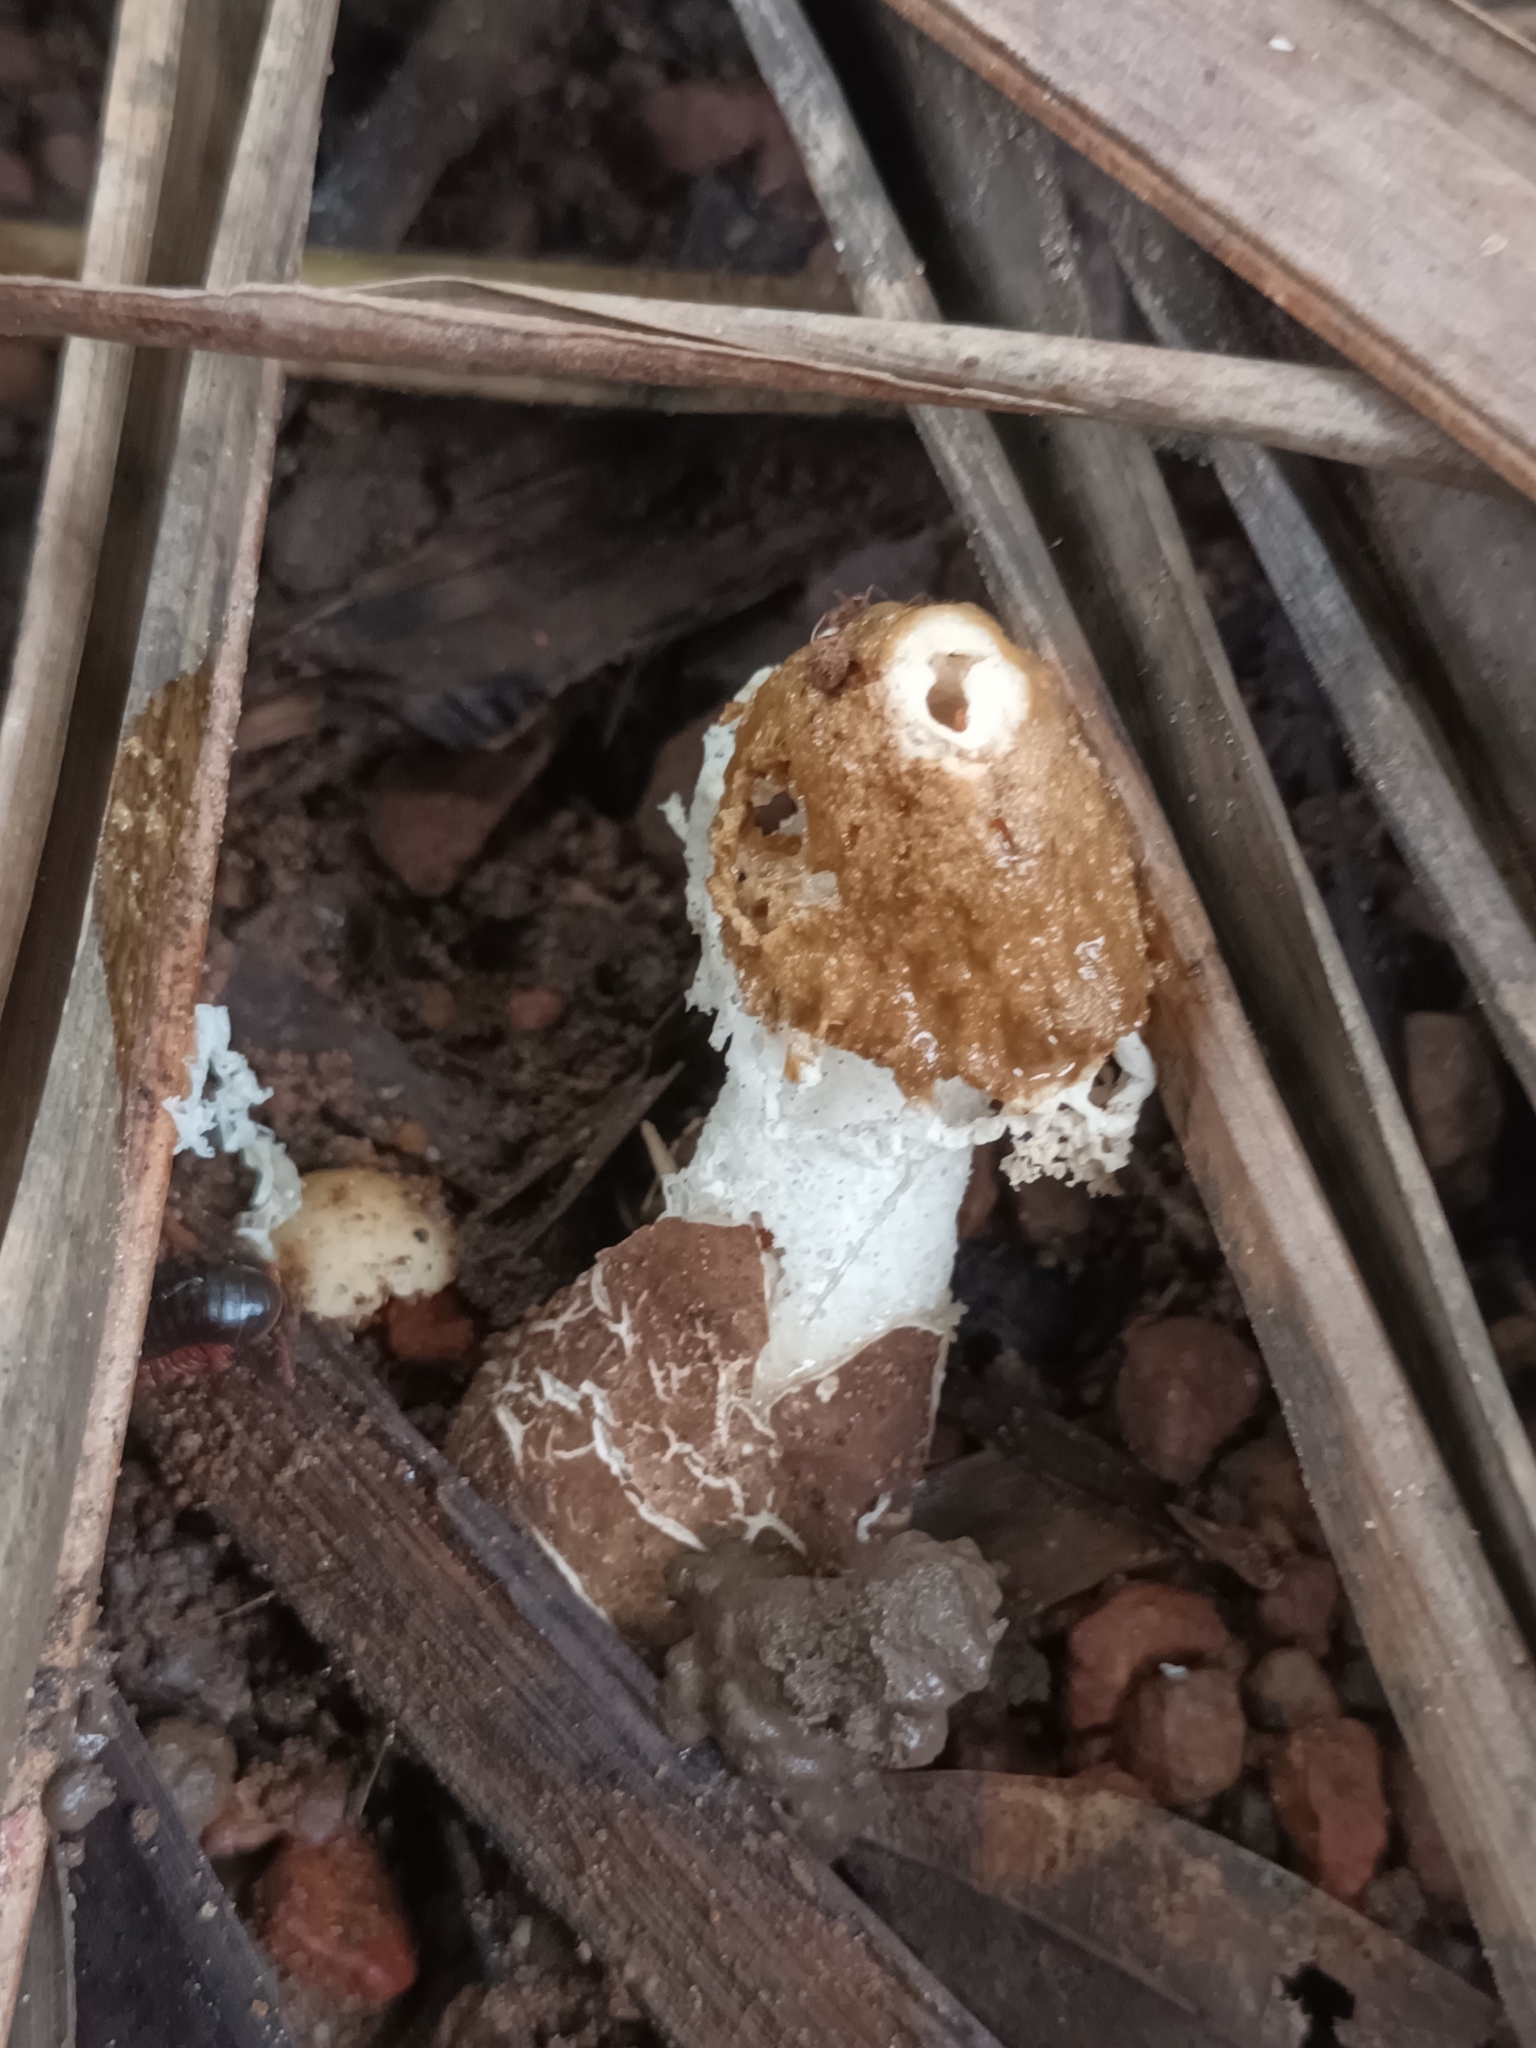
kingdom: Fungi
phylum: Basidiomycota
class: Agaricomycetes
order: Phallales
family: Phallaceae
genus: Phallus
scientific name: Phallus merulinus
